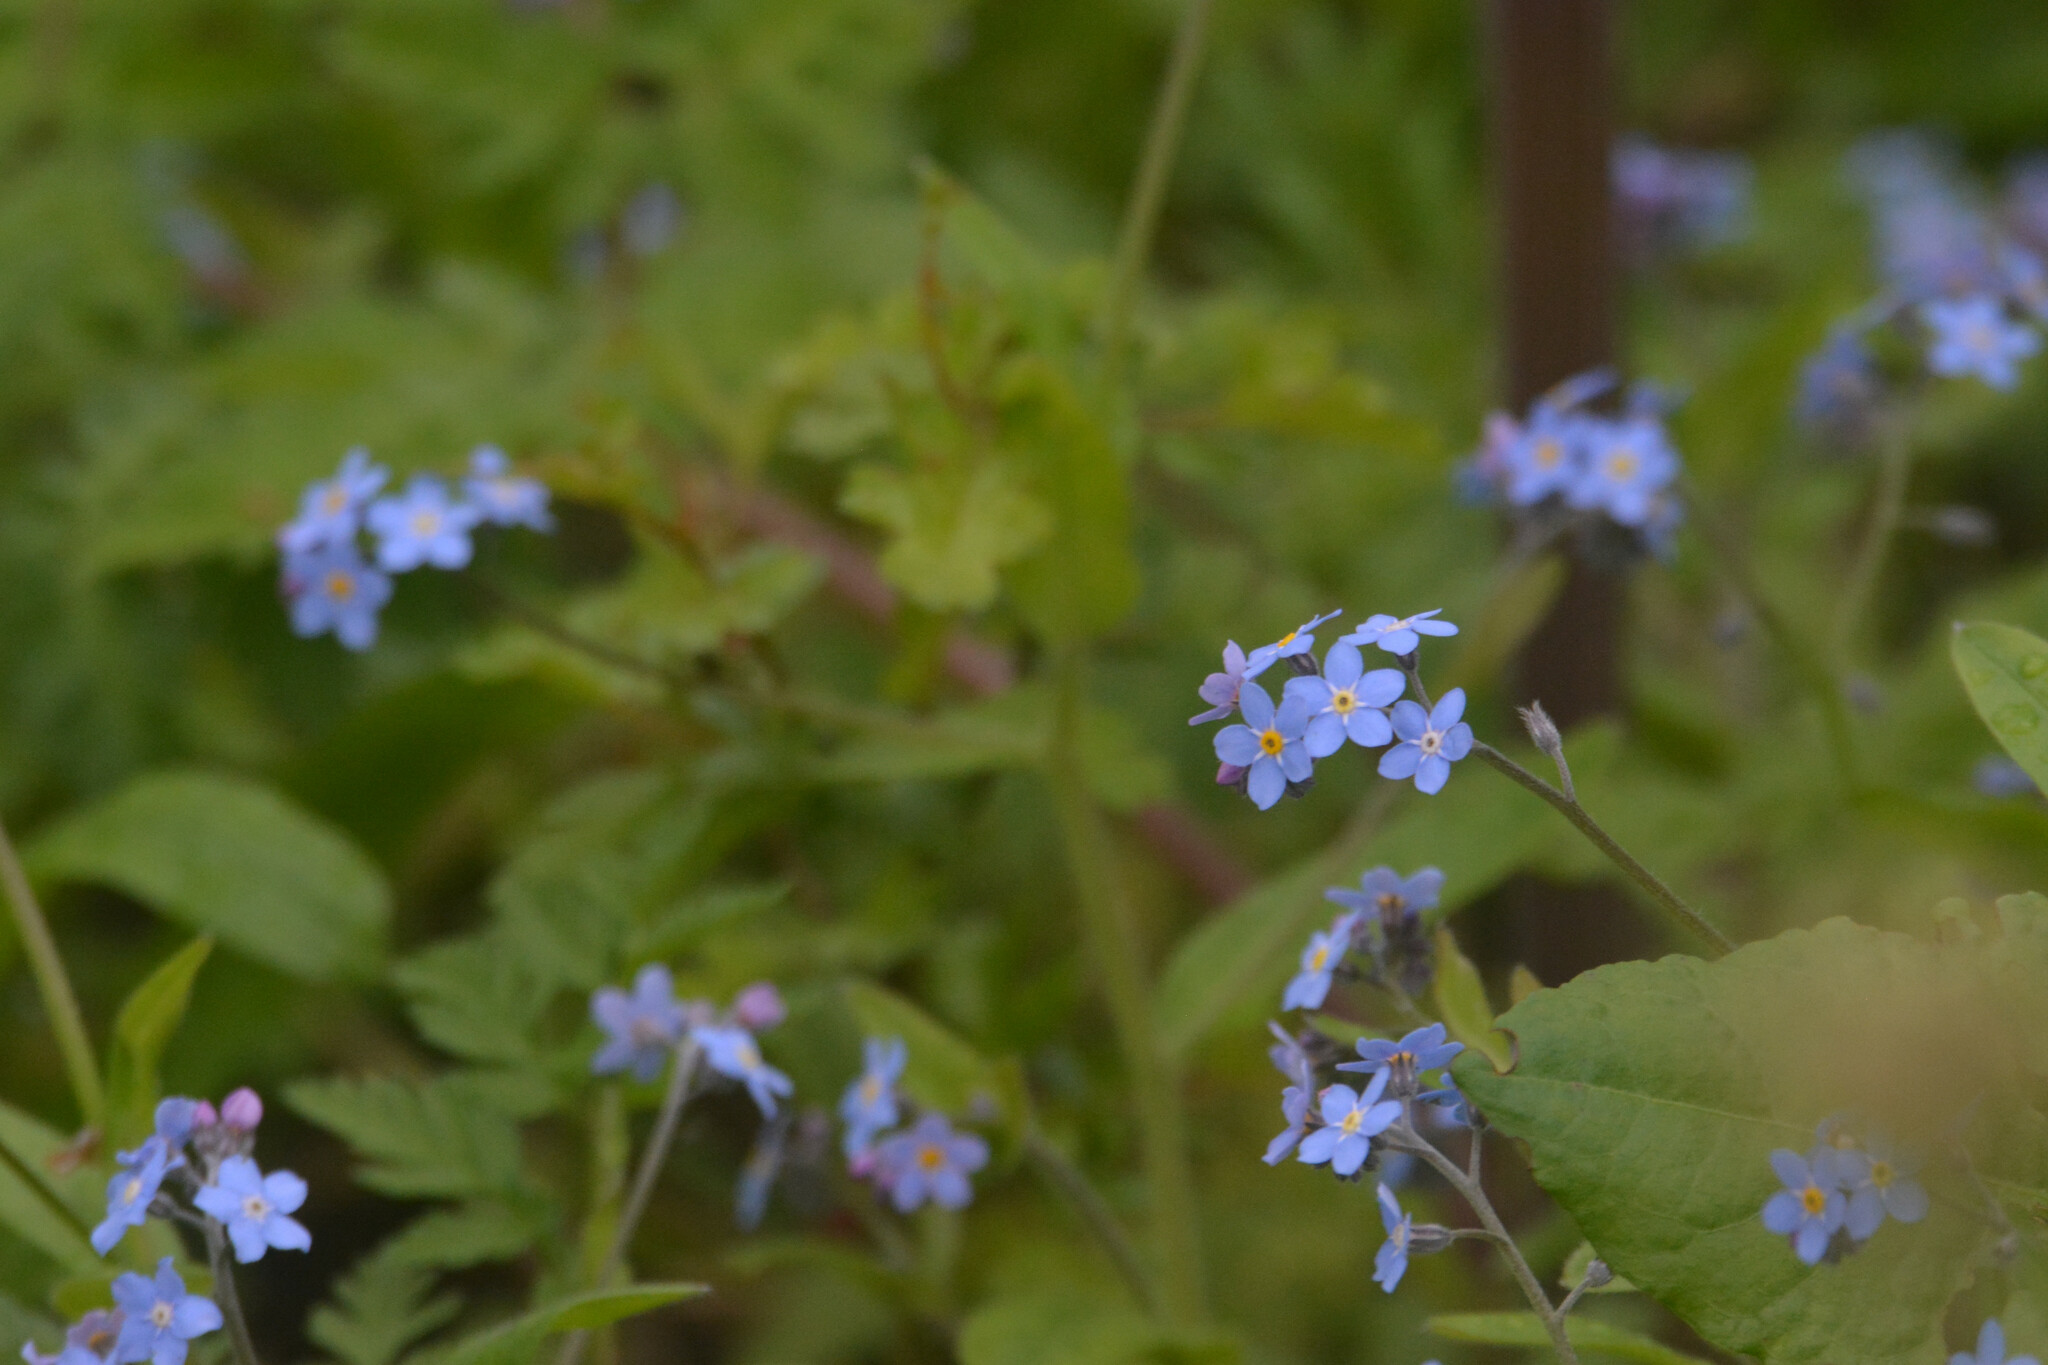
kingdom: Plantae
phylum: Tracheophyta
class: Magnoliopsida
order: Boraginales
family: Boraginaceae
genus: Myosotis
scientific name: Myosotis sylvatica
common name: Wood forget-me-not
